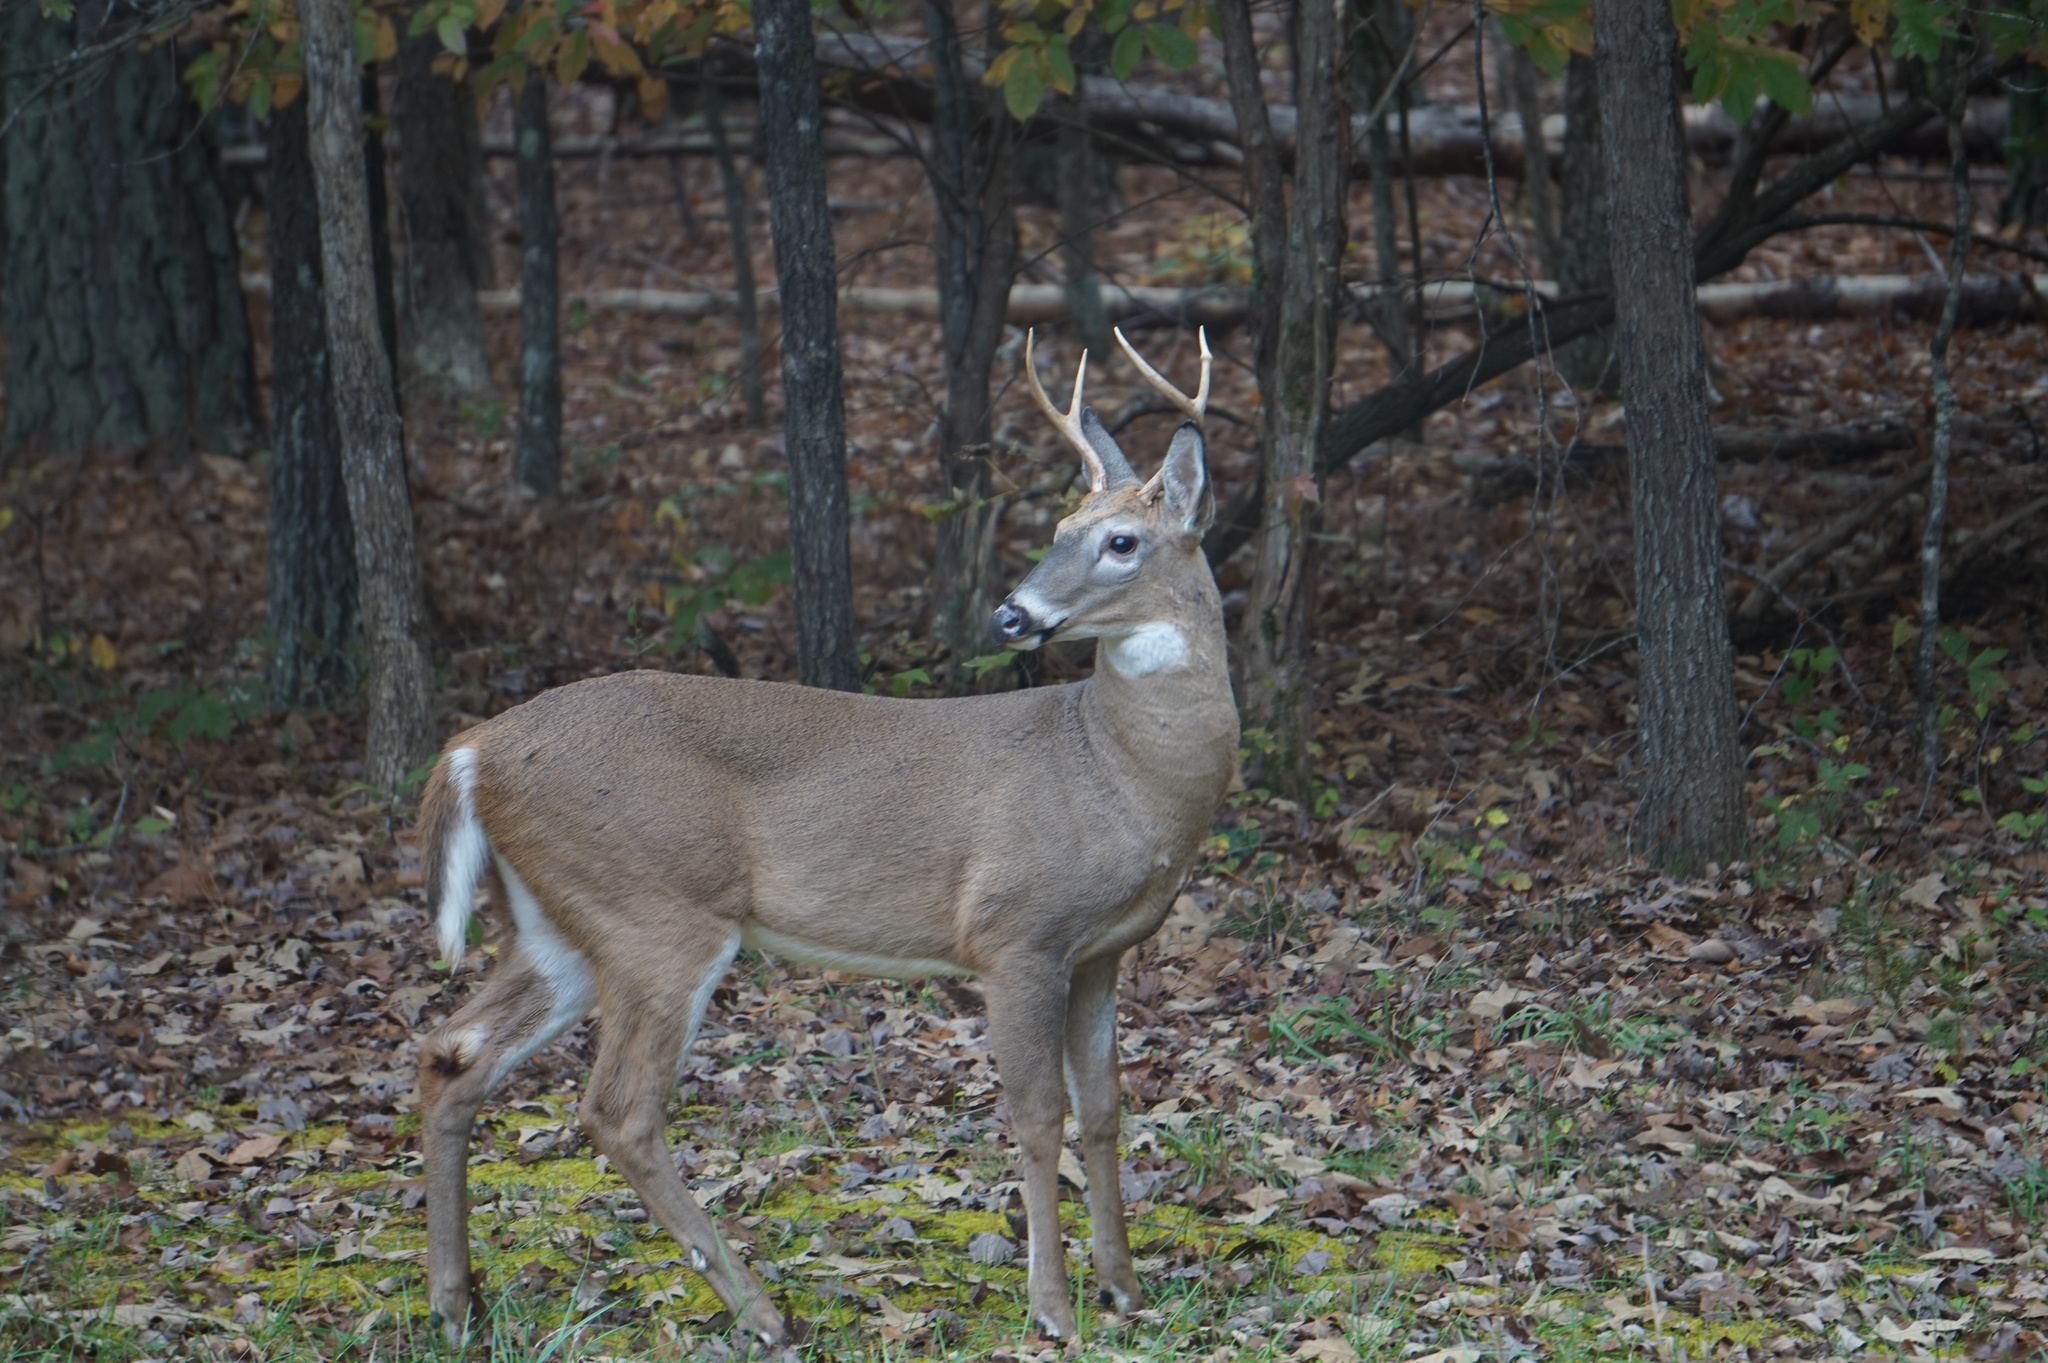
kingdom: Animalia
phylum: Chordata
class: Mammalia
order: Artiodactyla
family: Cervidae
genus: Odocoileus
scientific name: Odocoileus virginianus
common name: White-tailed deer
